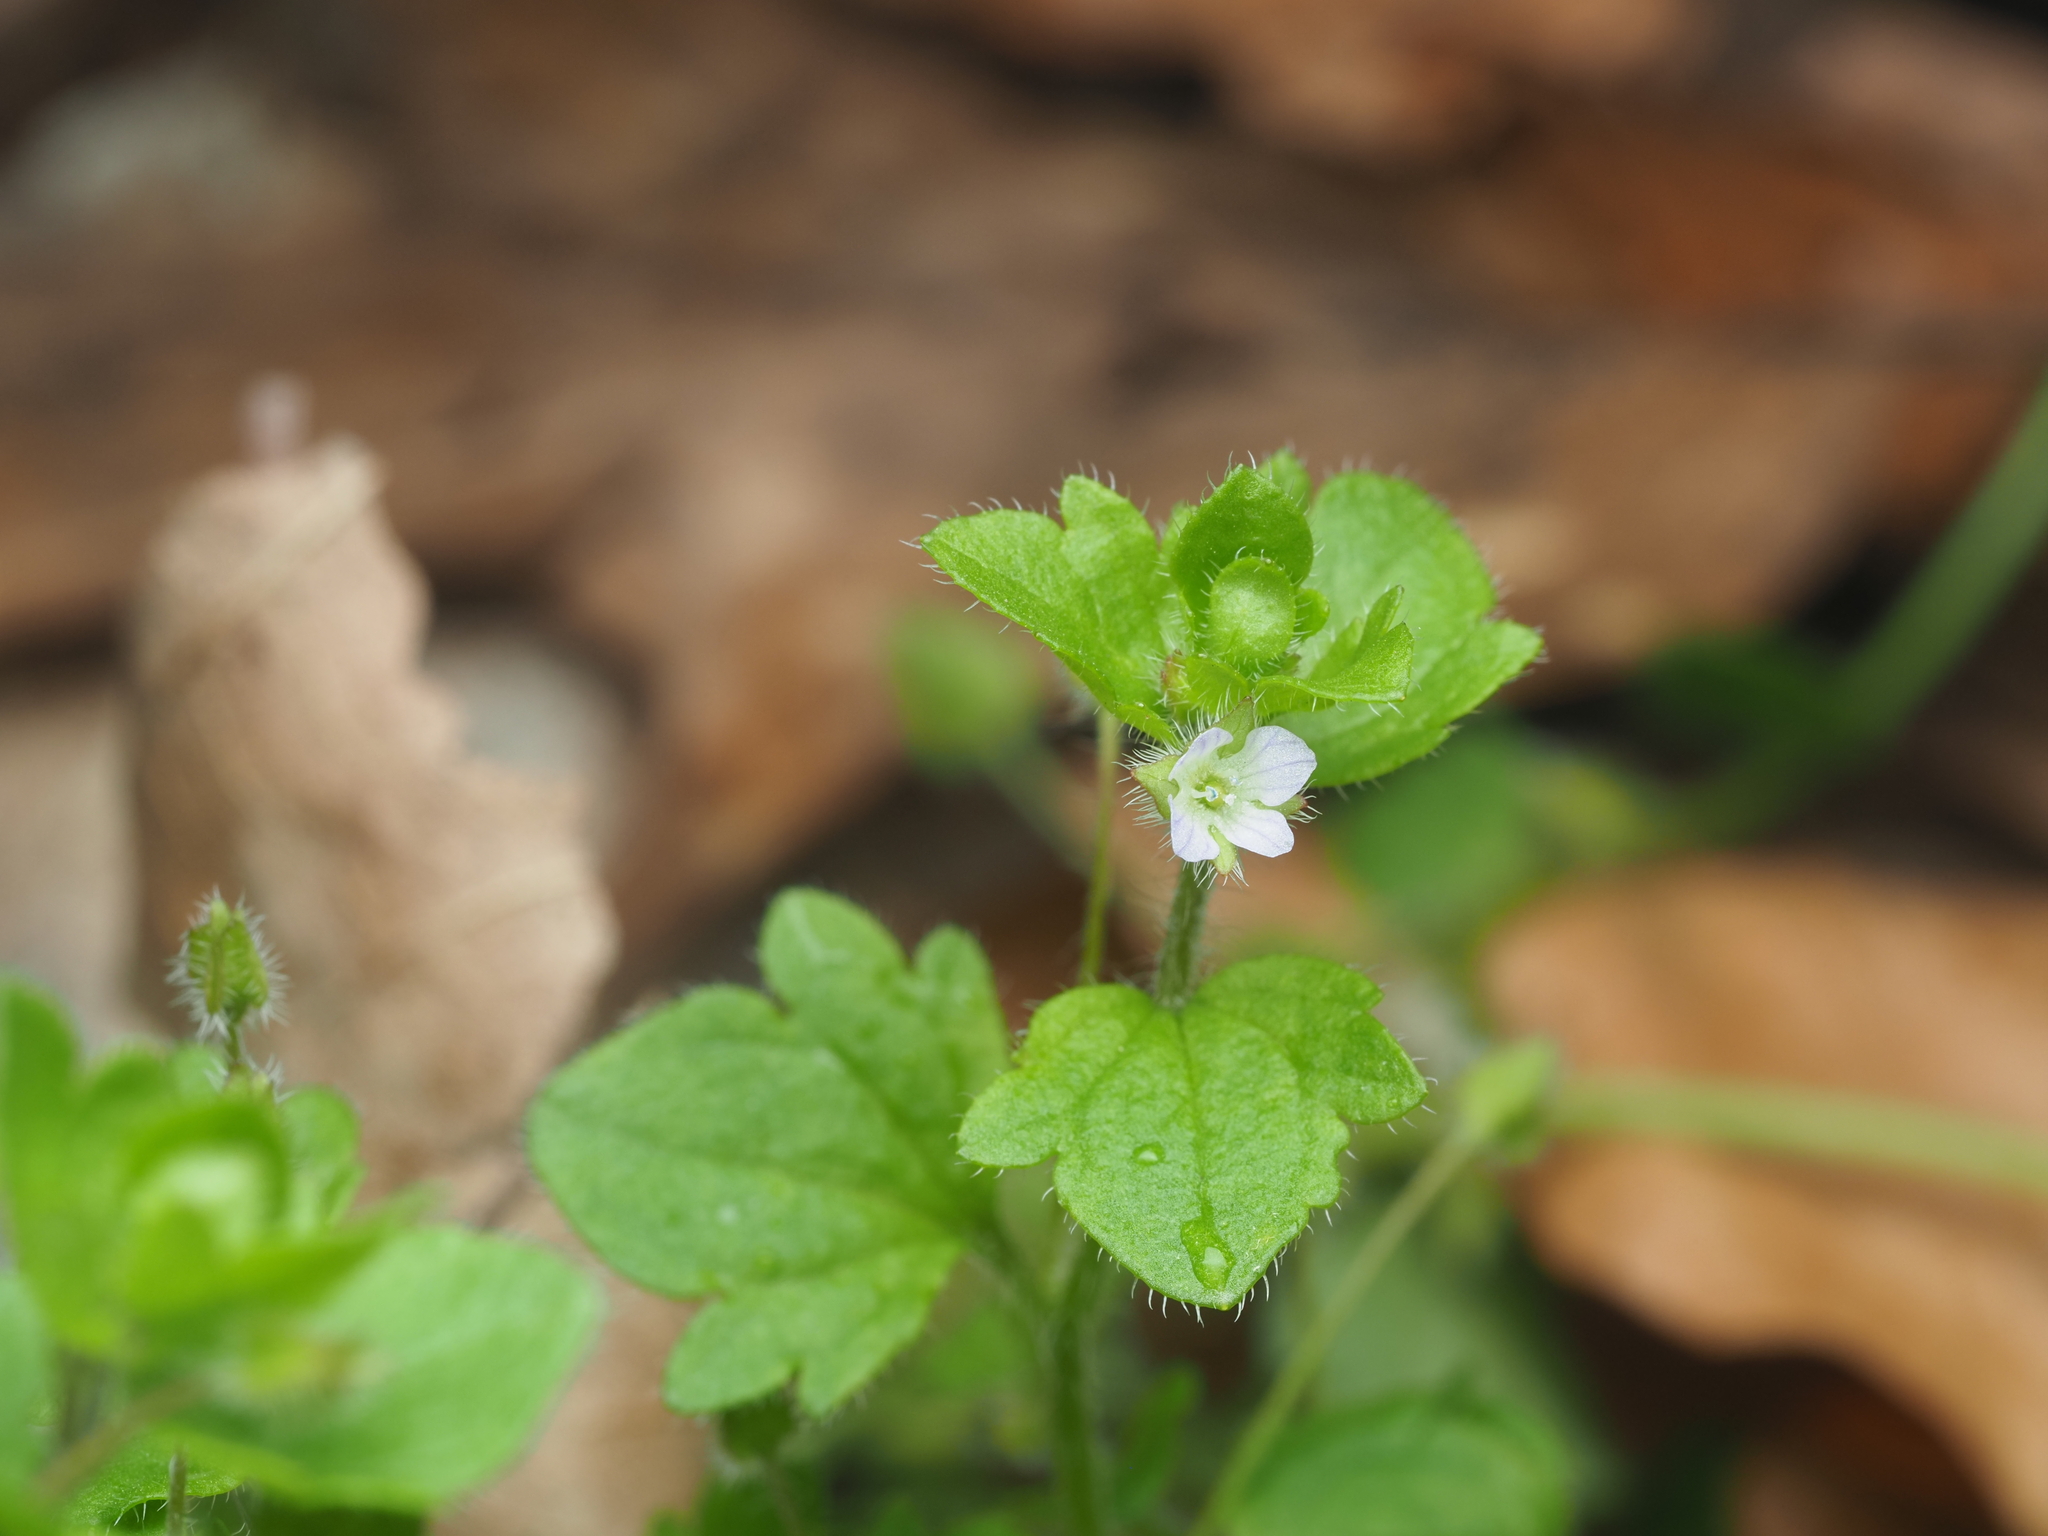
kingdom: Plantae
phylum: Tracheophyta
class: Magnoliopsida
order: Lamiales
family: Plantaginaceae
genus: Veronica
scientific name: Veronica sublobata
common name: False ivy-leaved speedwell
